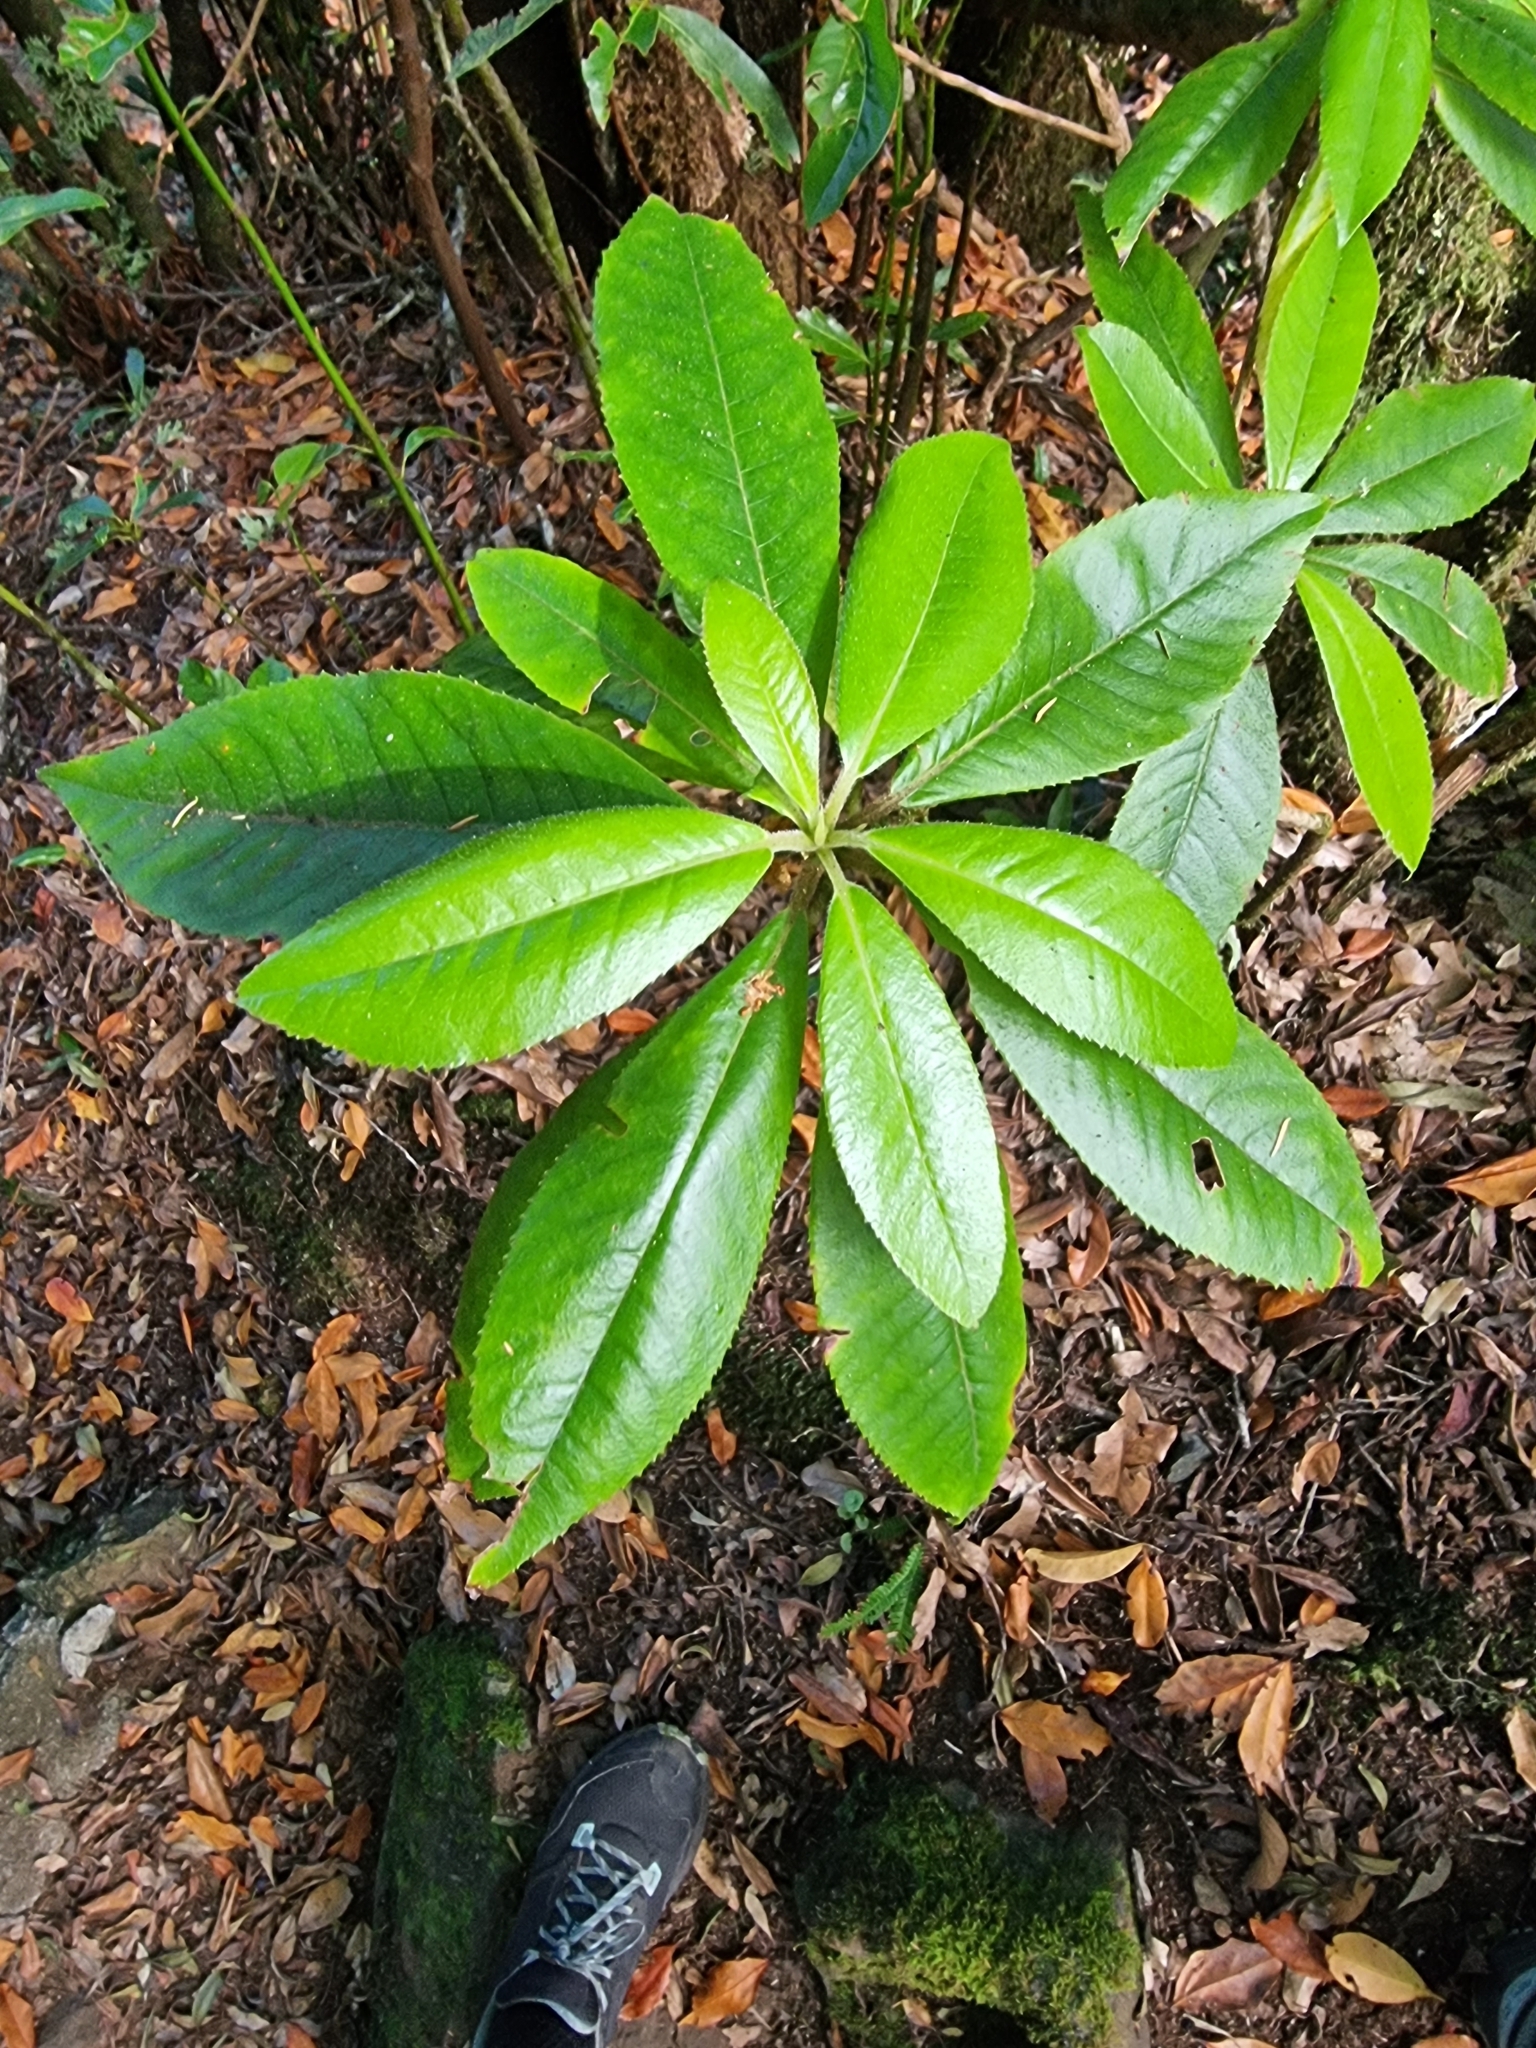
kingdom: Plantae
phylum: Tracheophyta
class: Magnoliopsida
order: Ericales
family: Clethraceae
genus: Clethra
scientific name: Clethra arborea
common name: Lily-of-the-valley-tree
